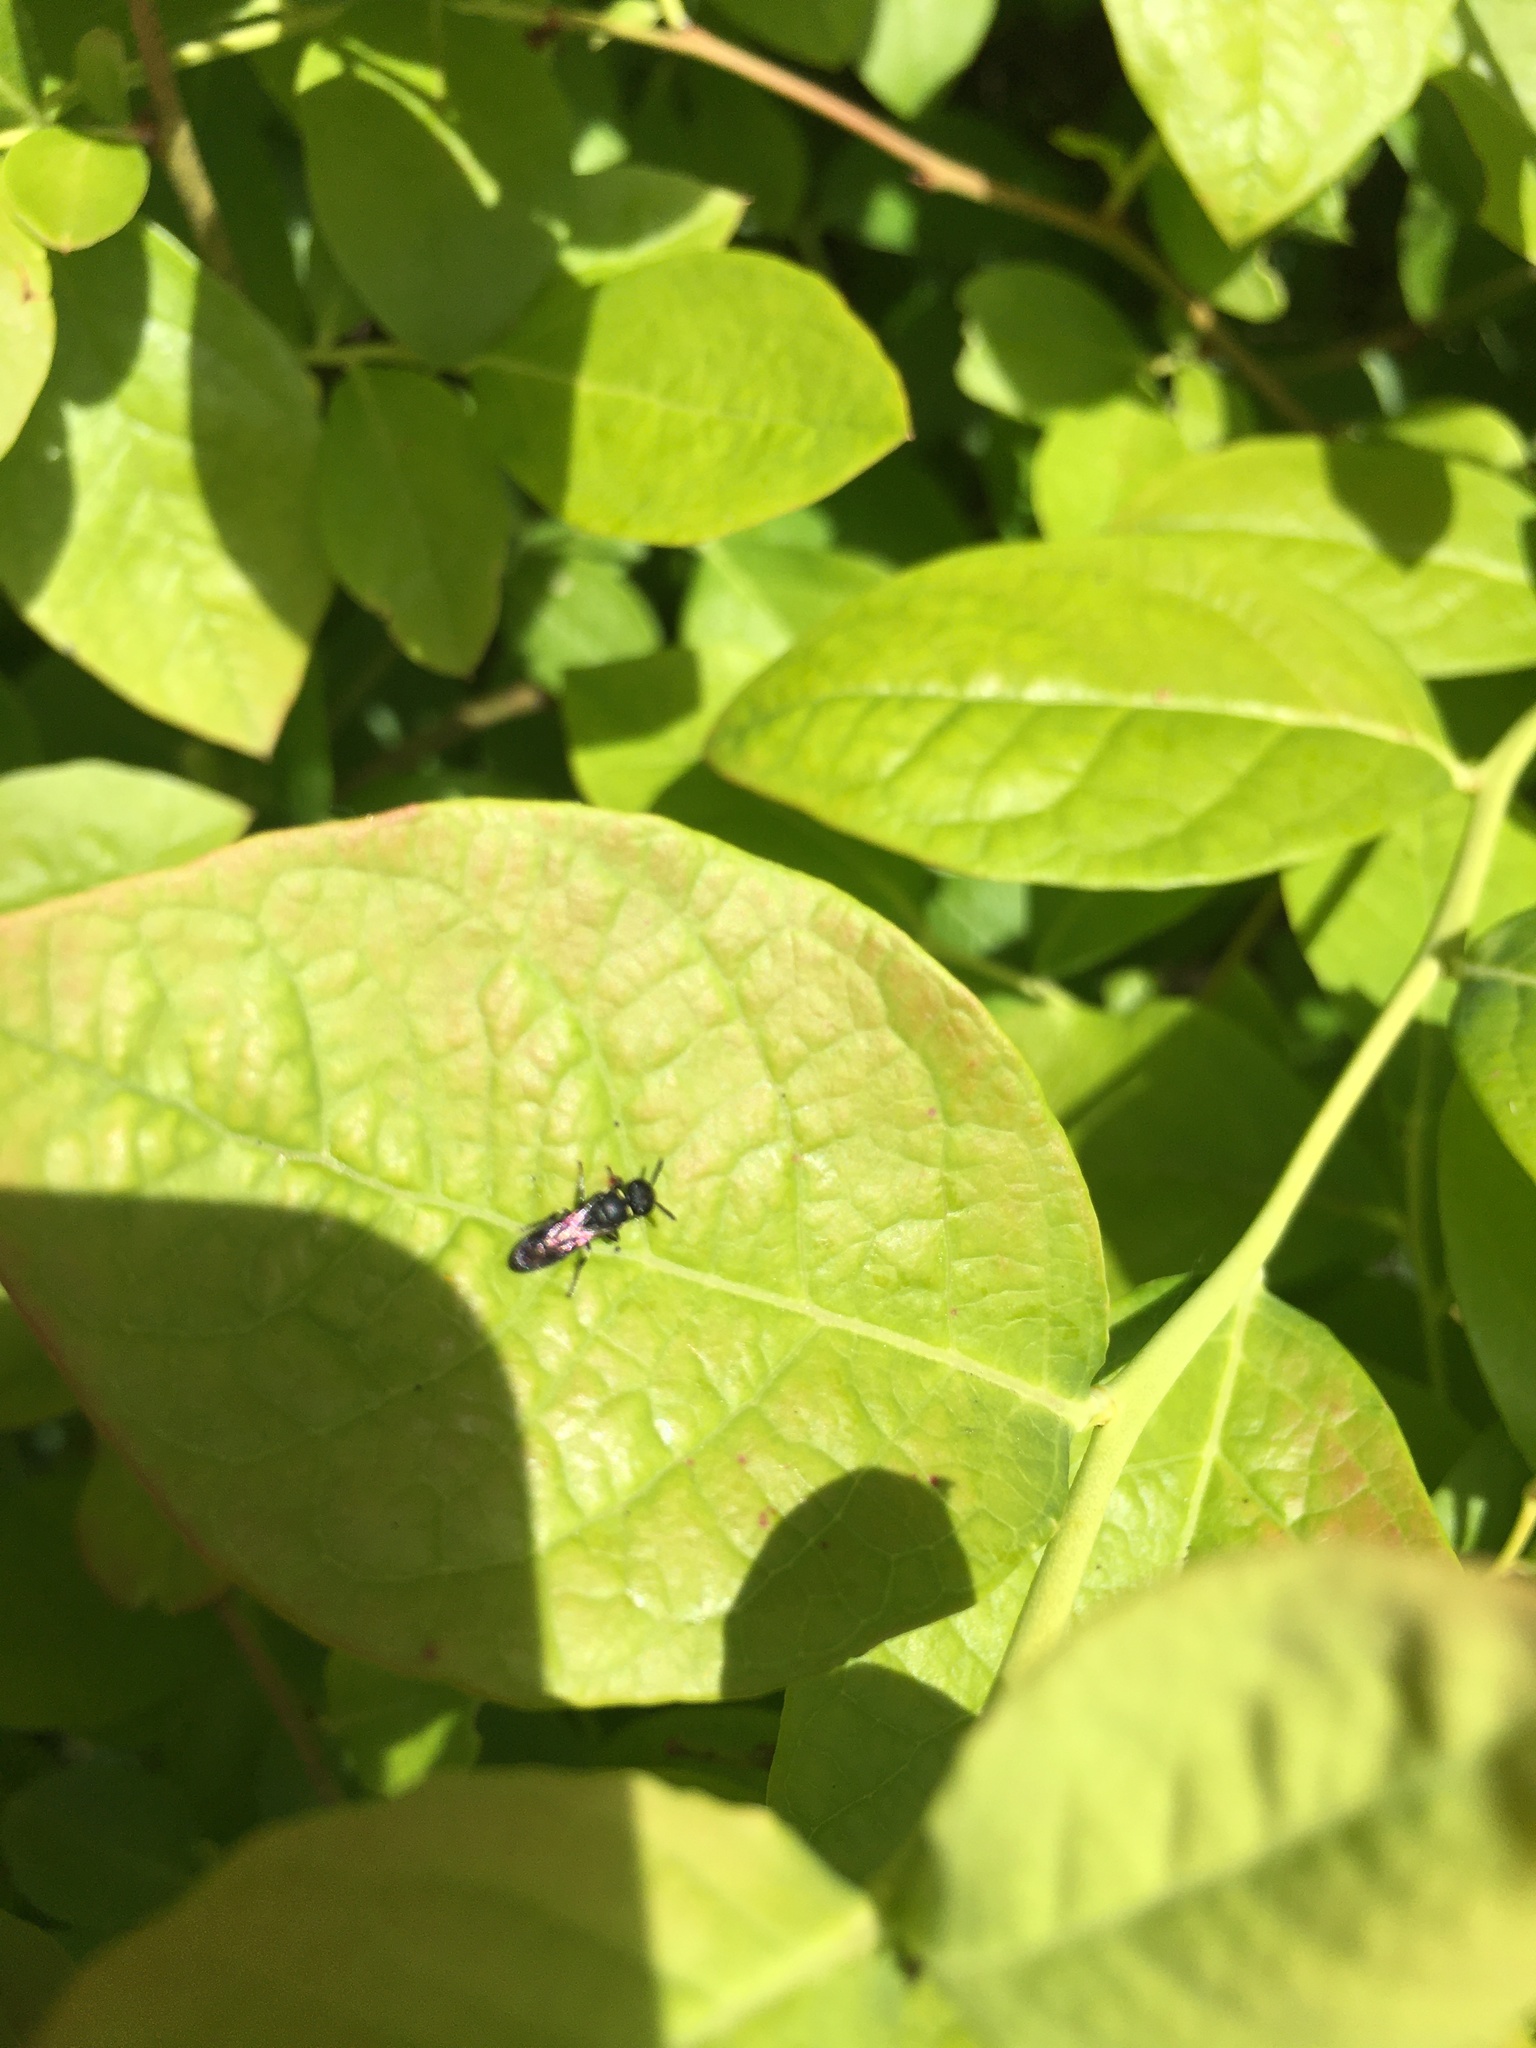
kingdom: Animalia
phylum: Arthropoda
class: Insecta
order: Hymenoptera
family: Colletidae
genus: Hylaeus
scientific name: Hylaeus
